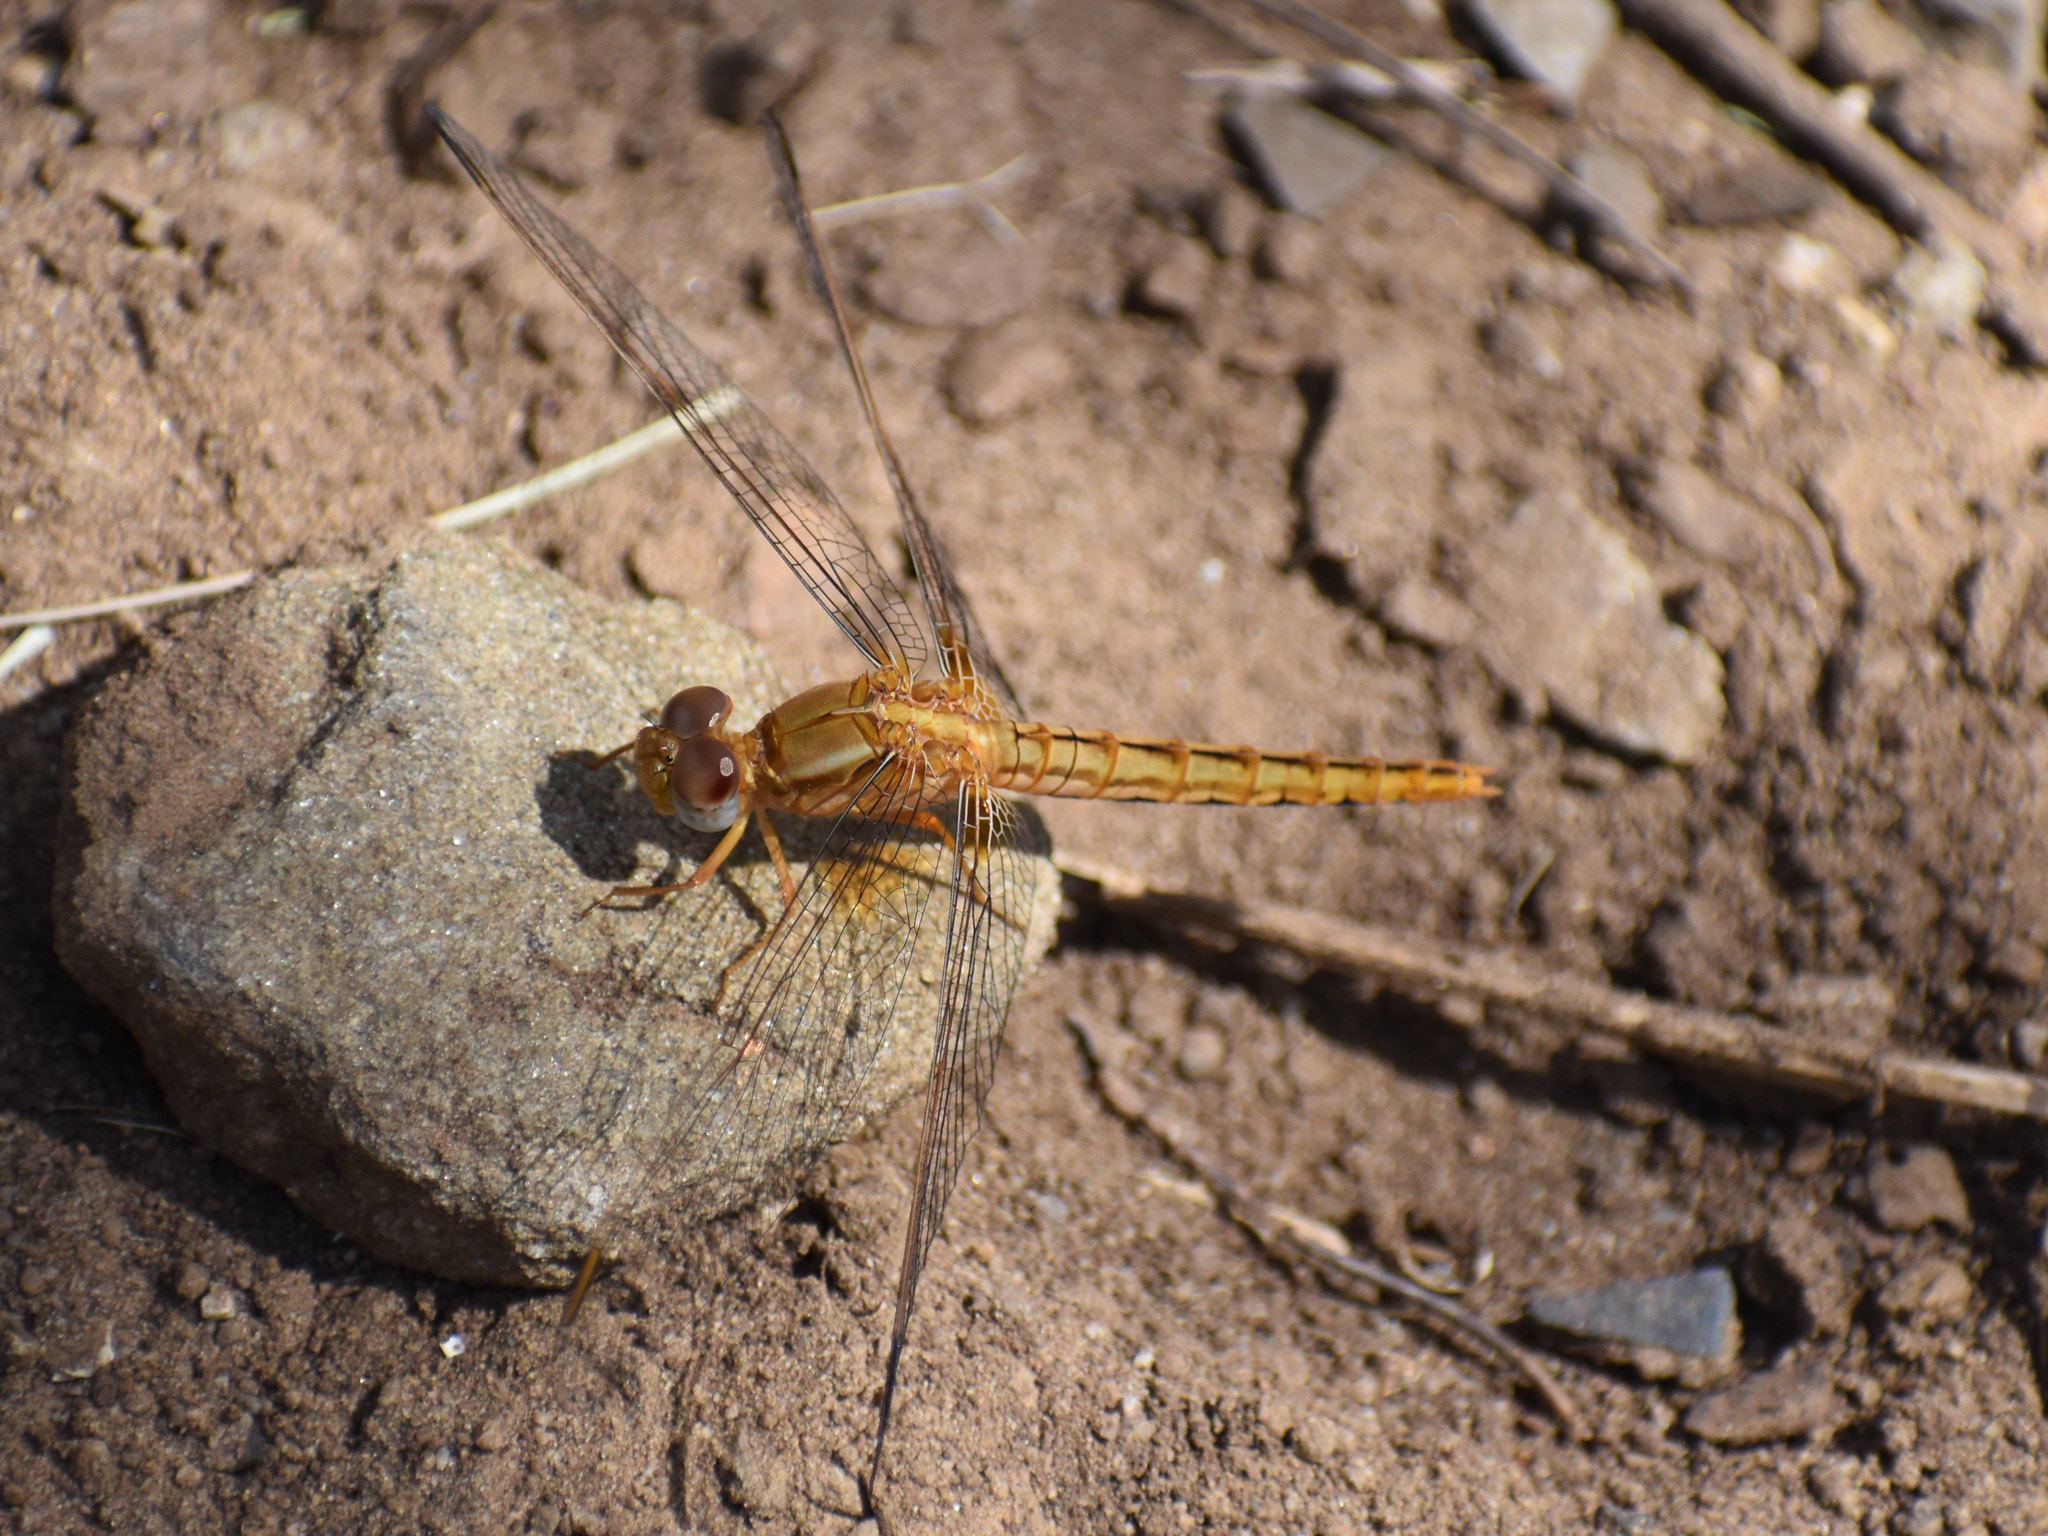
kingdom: Animalia
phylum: Arthropoda
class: Insecta
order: Odonata
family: Libellulidae
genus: Crocothemis
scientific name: Crocothemis sanguinolenta
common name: Little scarlet
